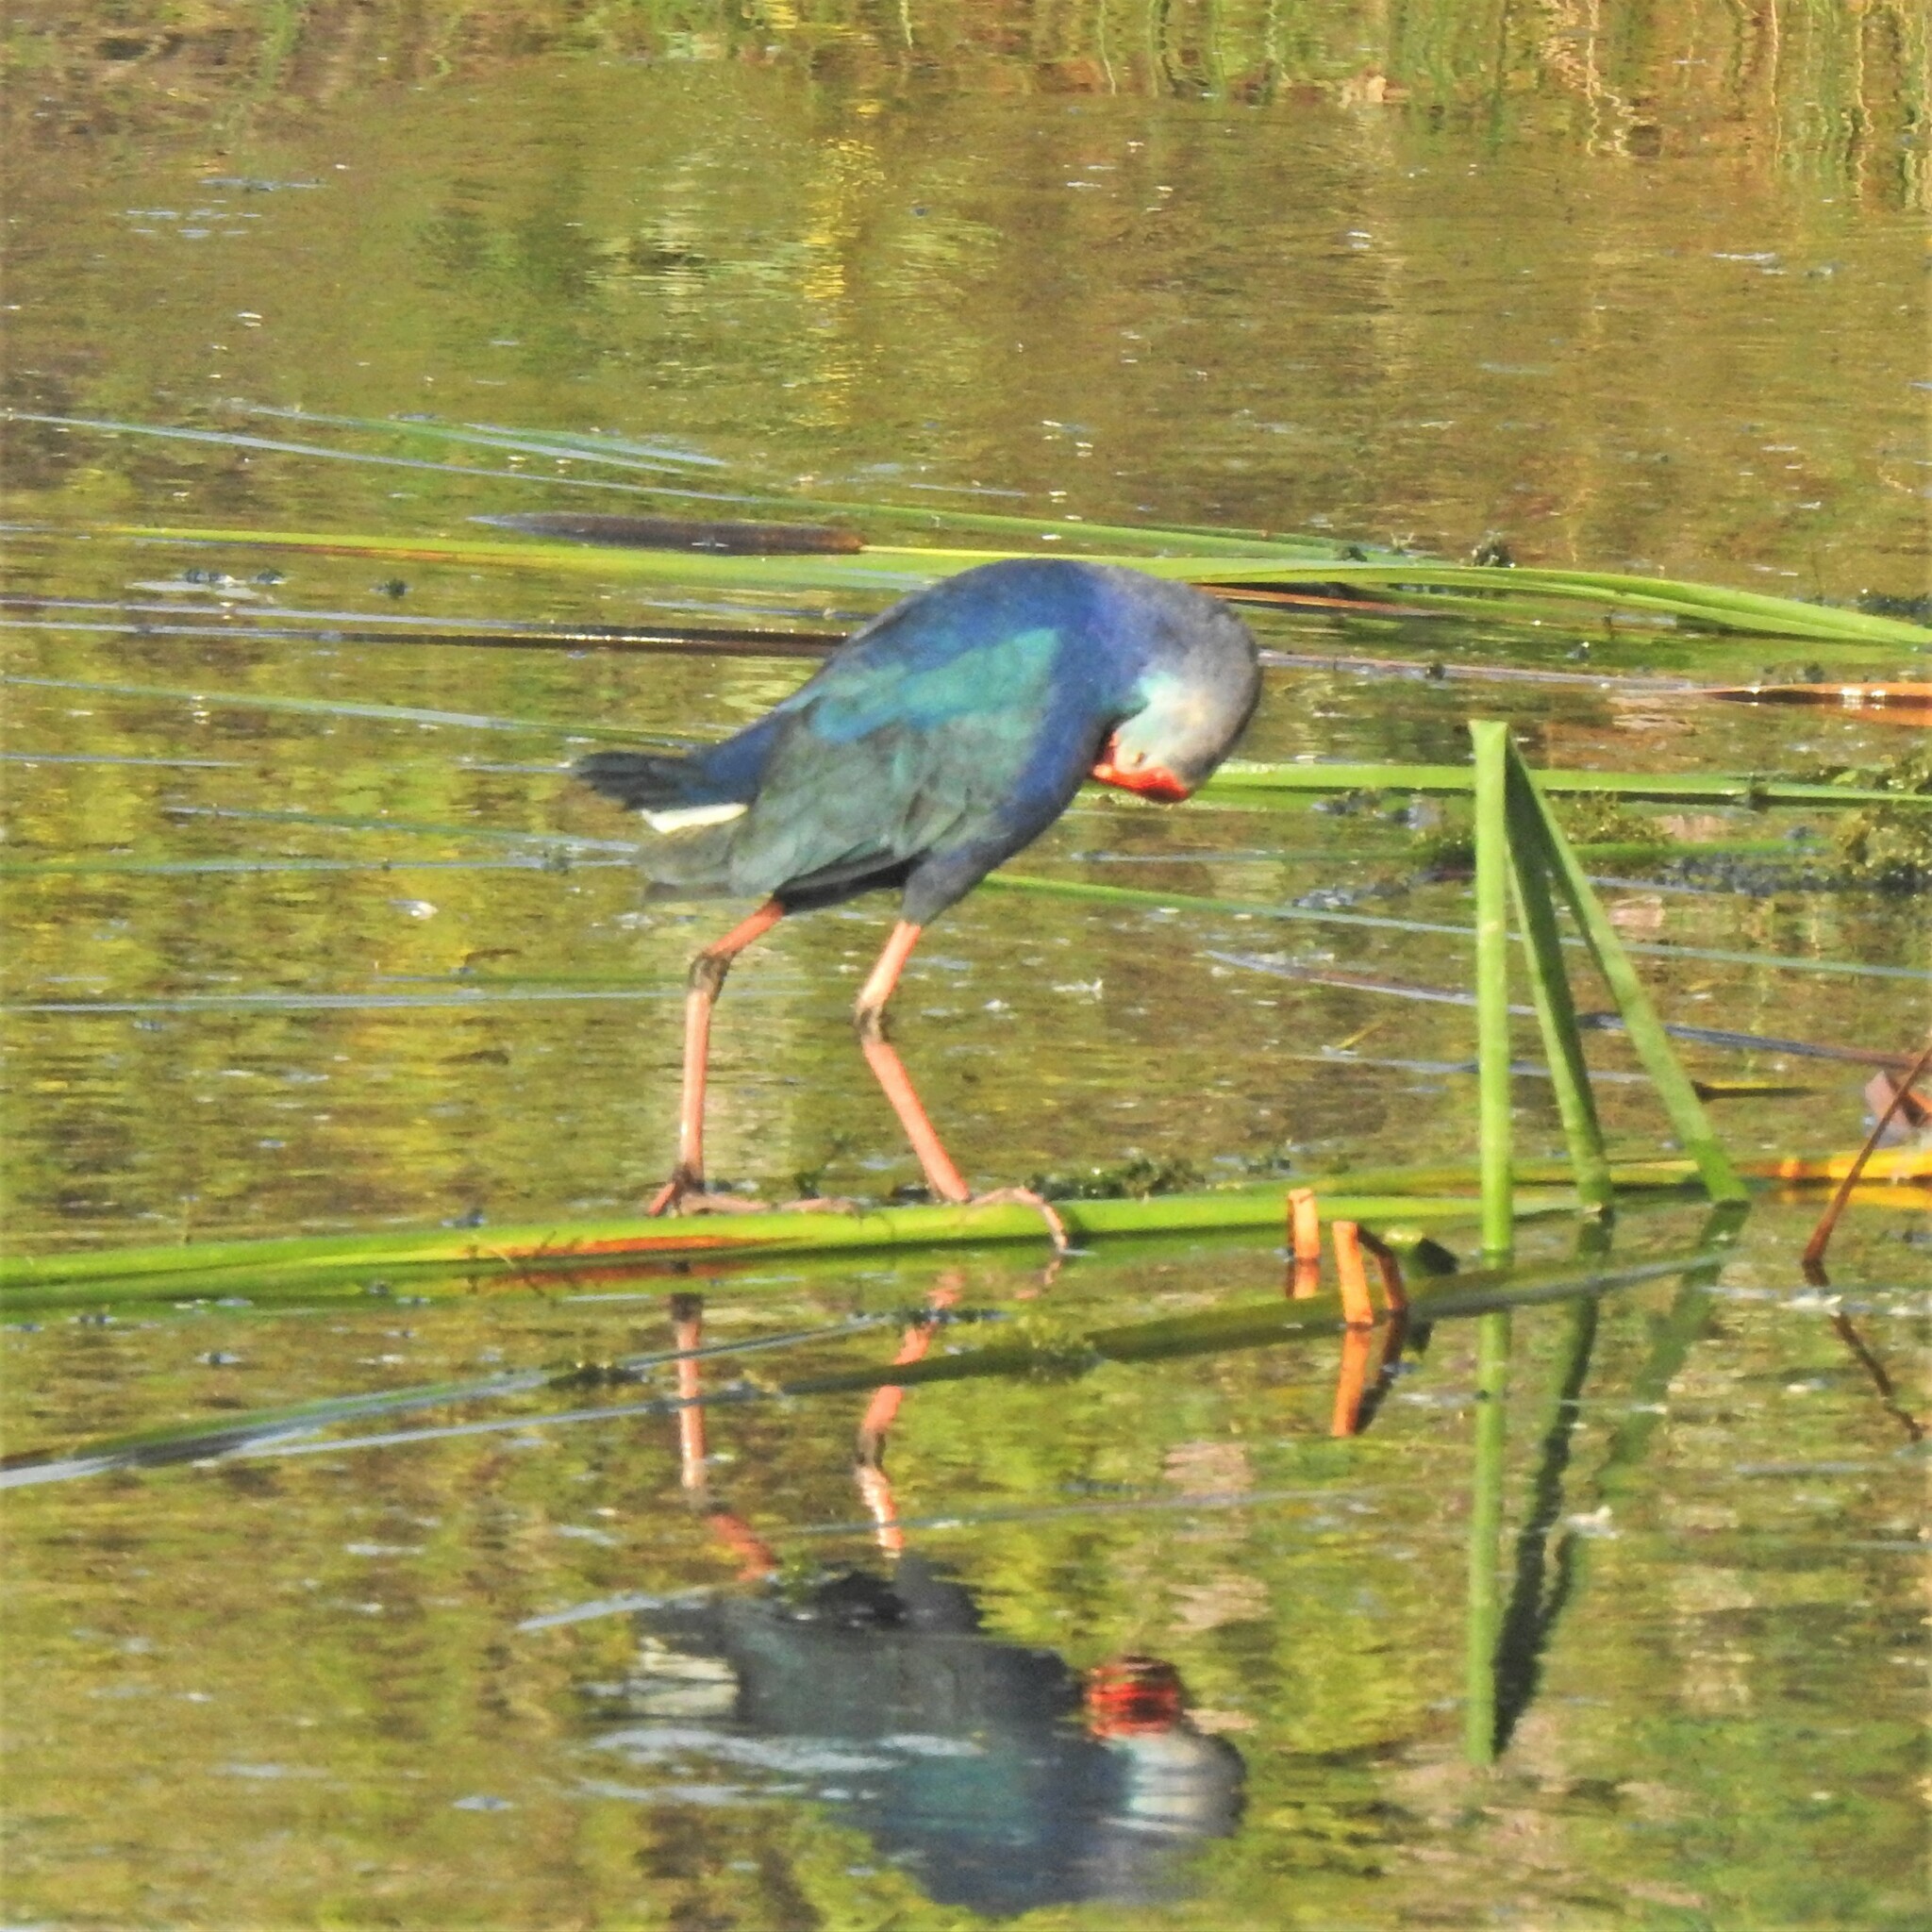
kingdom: Animalia
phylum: Chordata
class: Aves
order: Gruiformes
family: Rallidae
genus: Porphyrio
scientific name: Porphyrio porphyrio
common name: Purple swamphen
